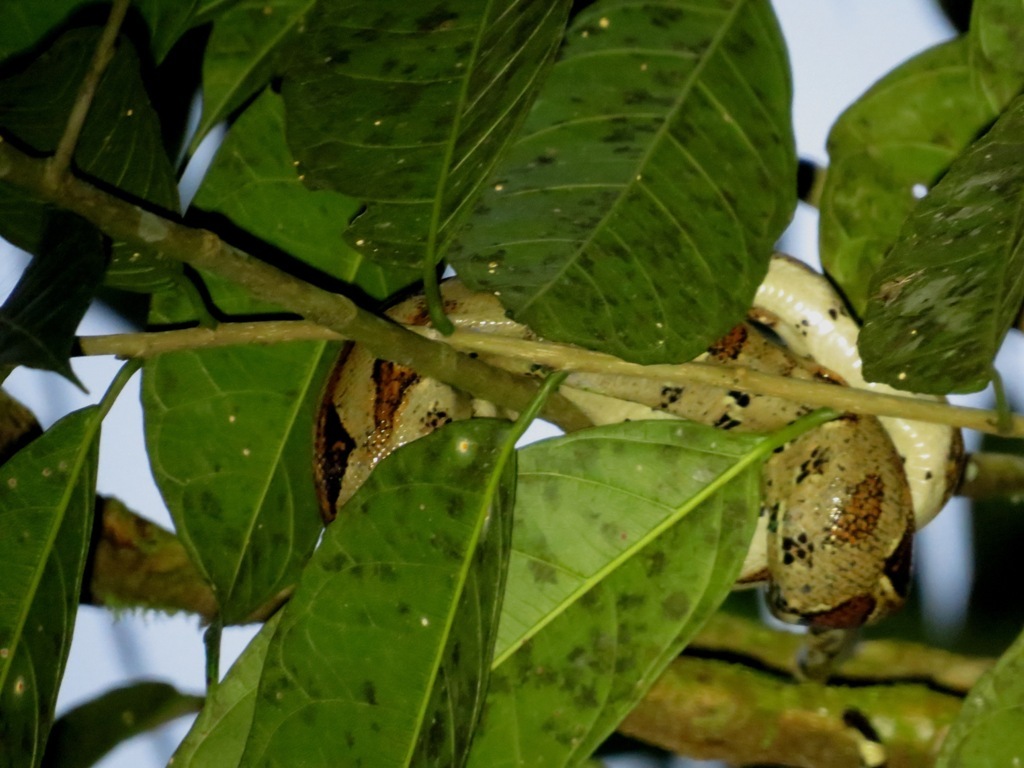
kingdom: Animalia
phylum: Chordata
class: Squamata
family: Boidae
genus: Boa
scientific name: Boa imperator
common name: Central american boa
